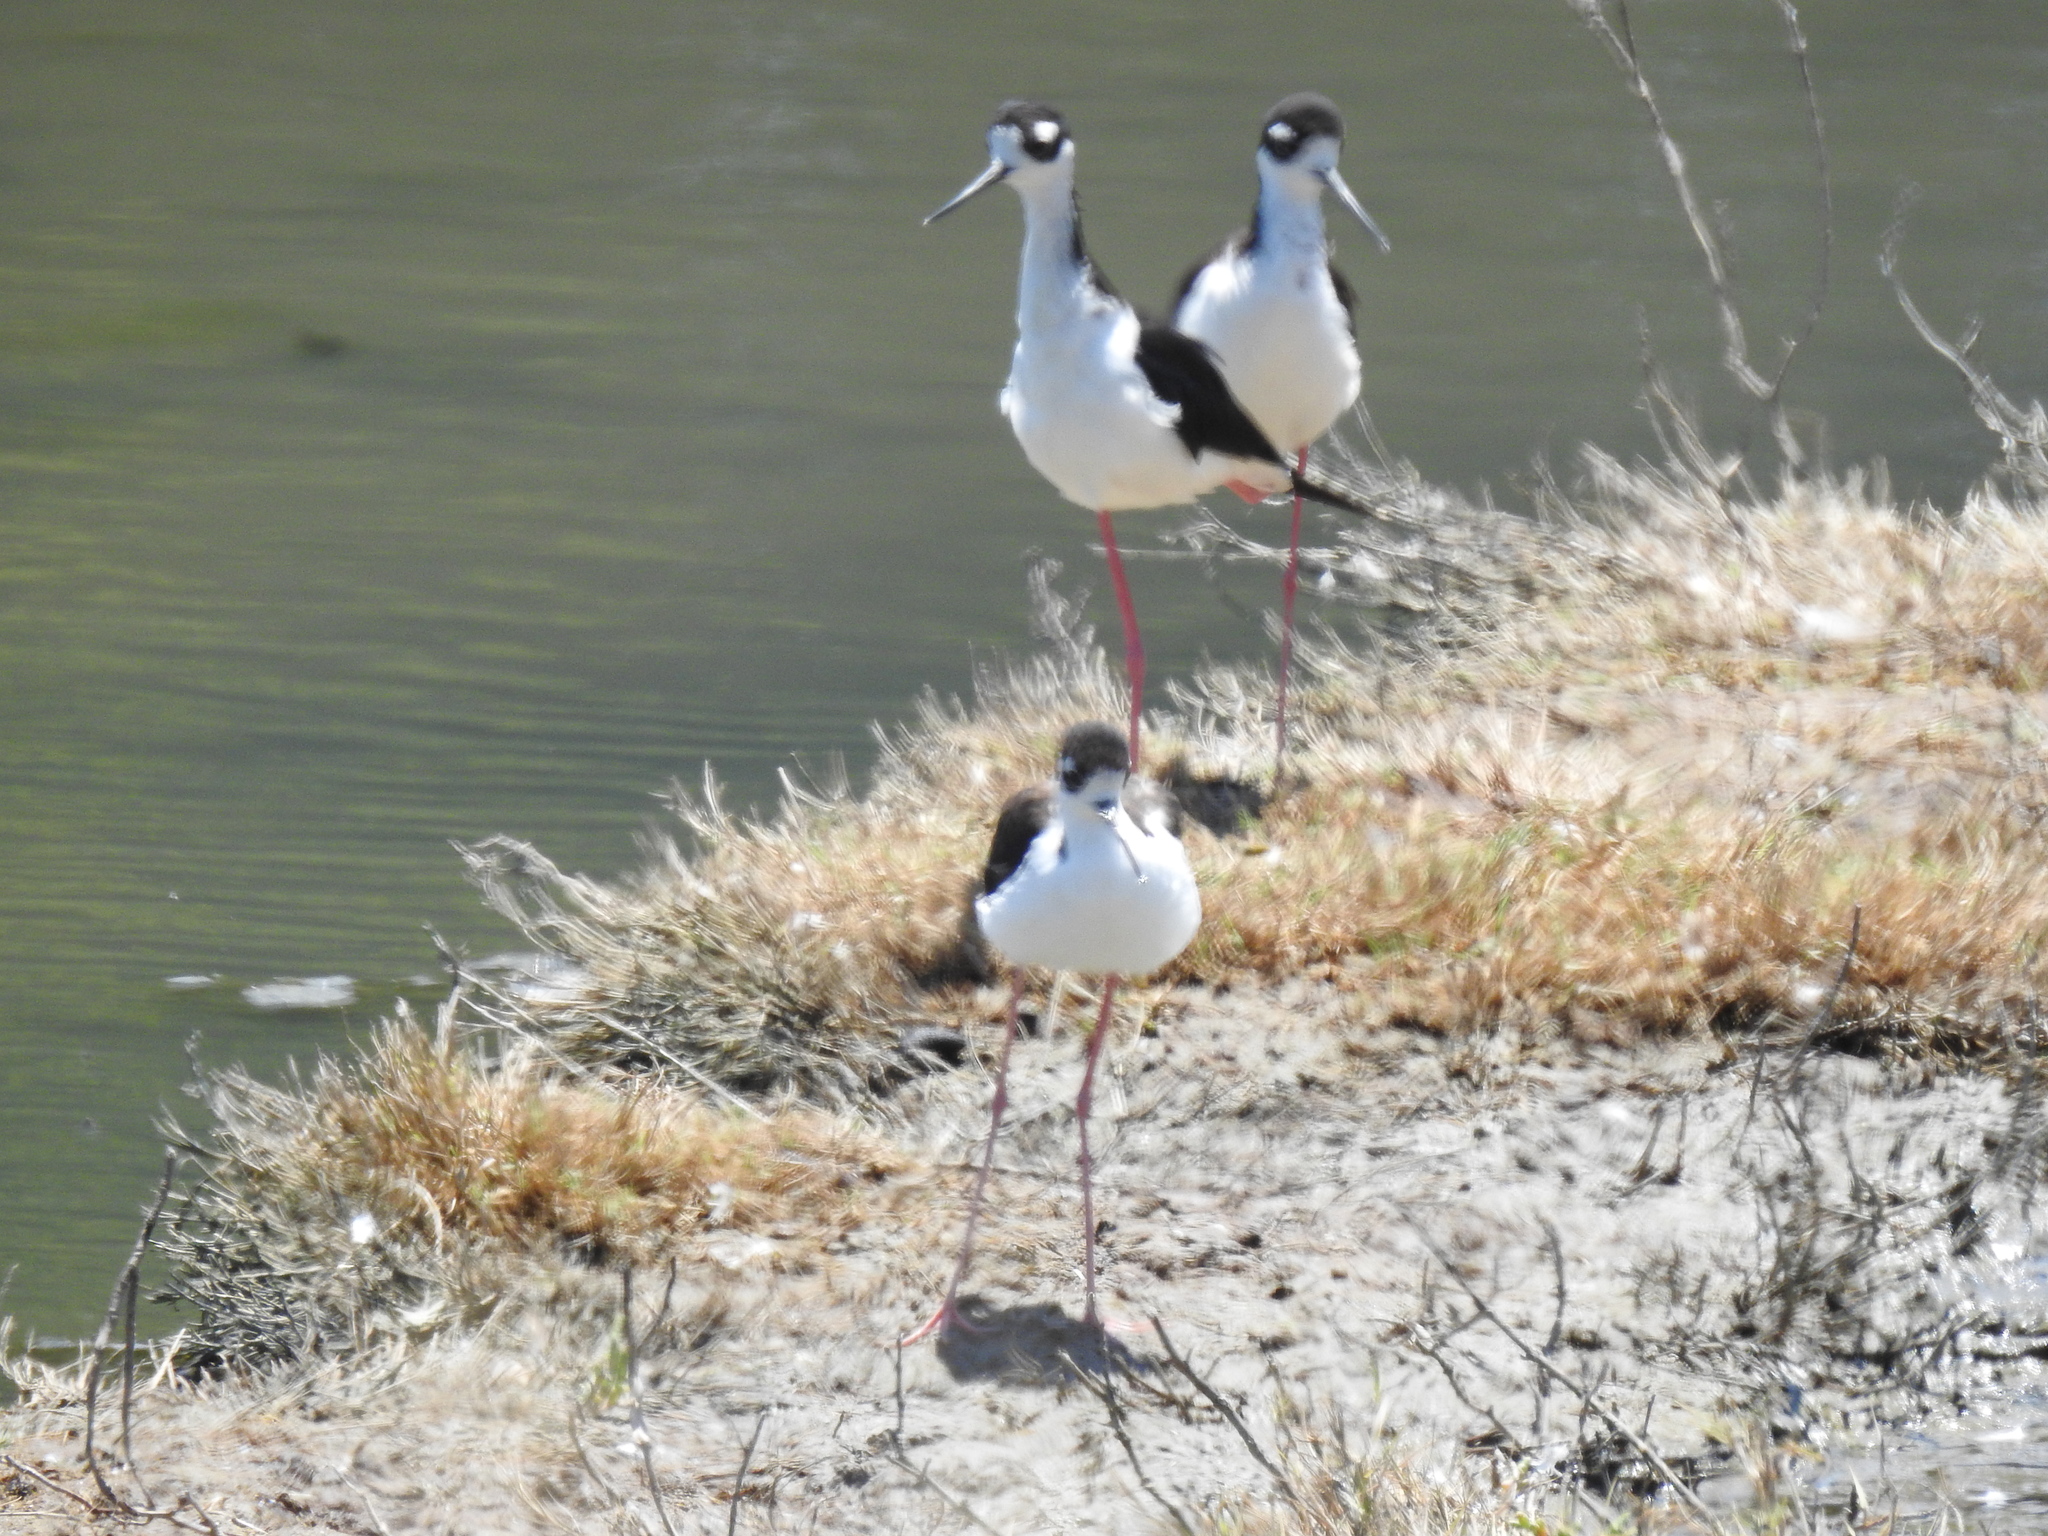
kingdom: Animalia
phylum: Chordata
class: Aves
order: Charadriiformes
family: Recurvirostridae
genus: Himantopus
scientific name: Himantopus mexicanus
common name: Black-necked stilt
